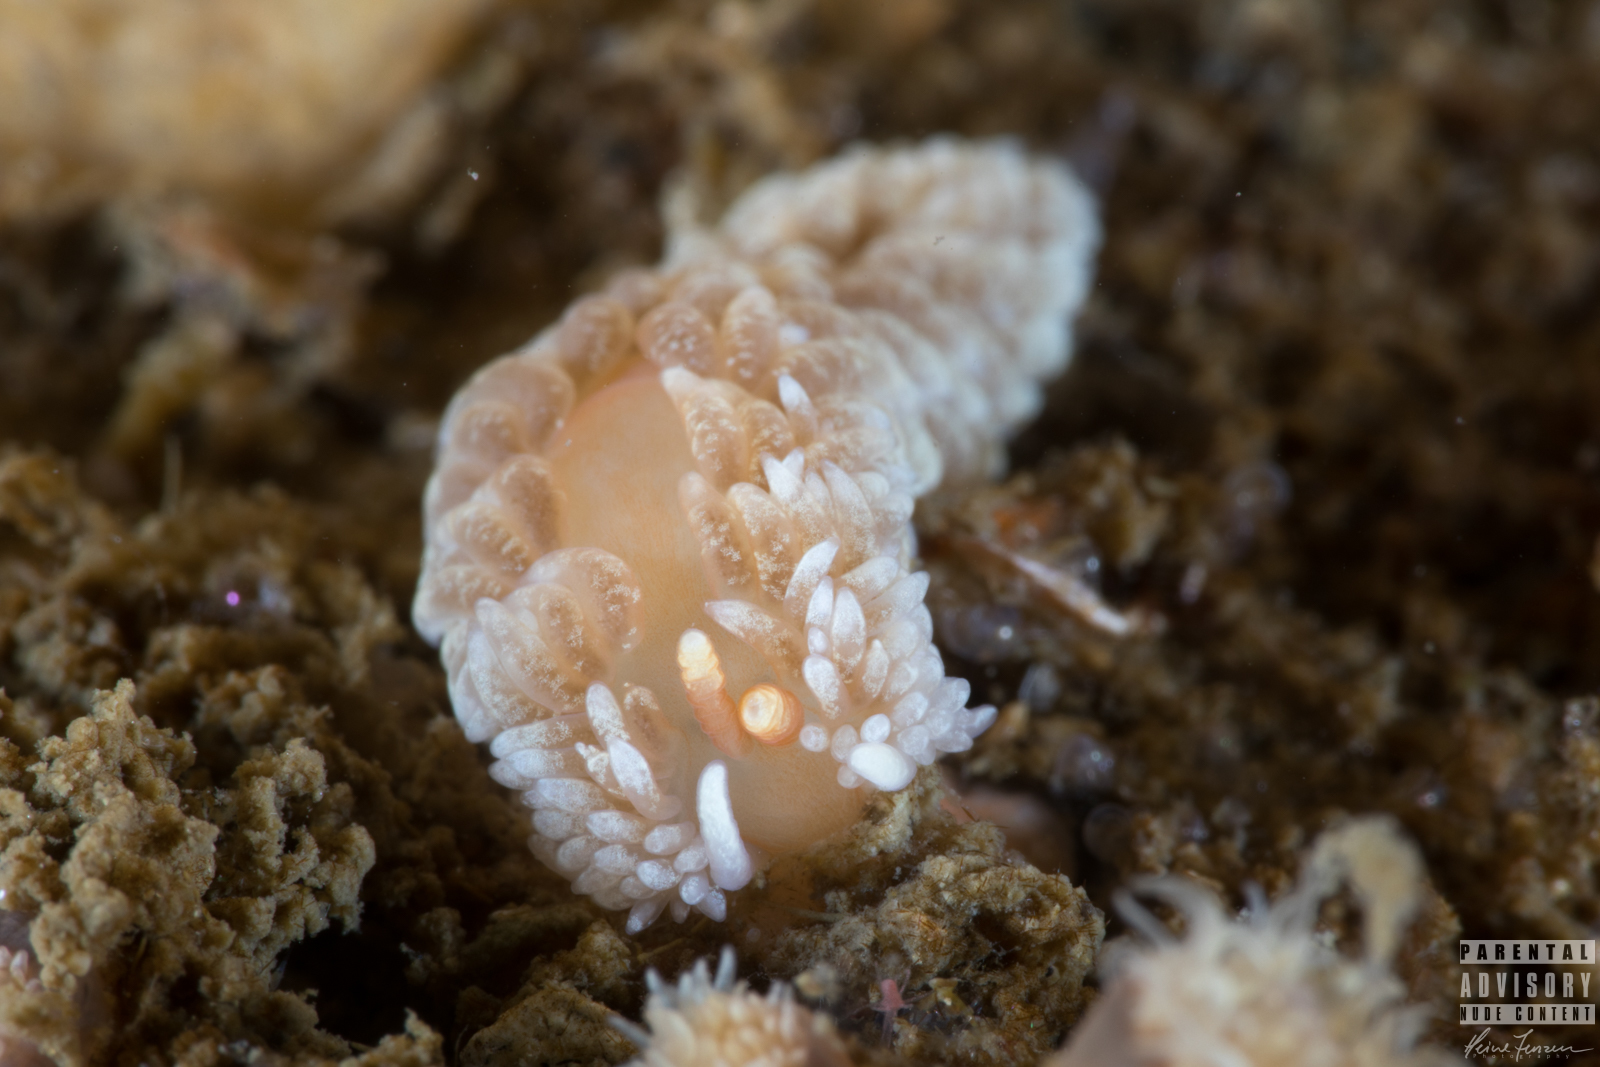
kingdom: Animalia
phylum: Mollusca
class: Gastropoda
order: Nudibranchia
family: Aeolidiidae
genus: Aeolidiella
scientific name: Aeolidiella glauca
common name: Orange-brown aeolid
